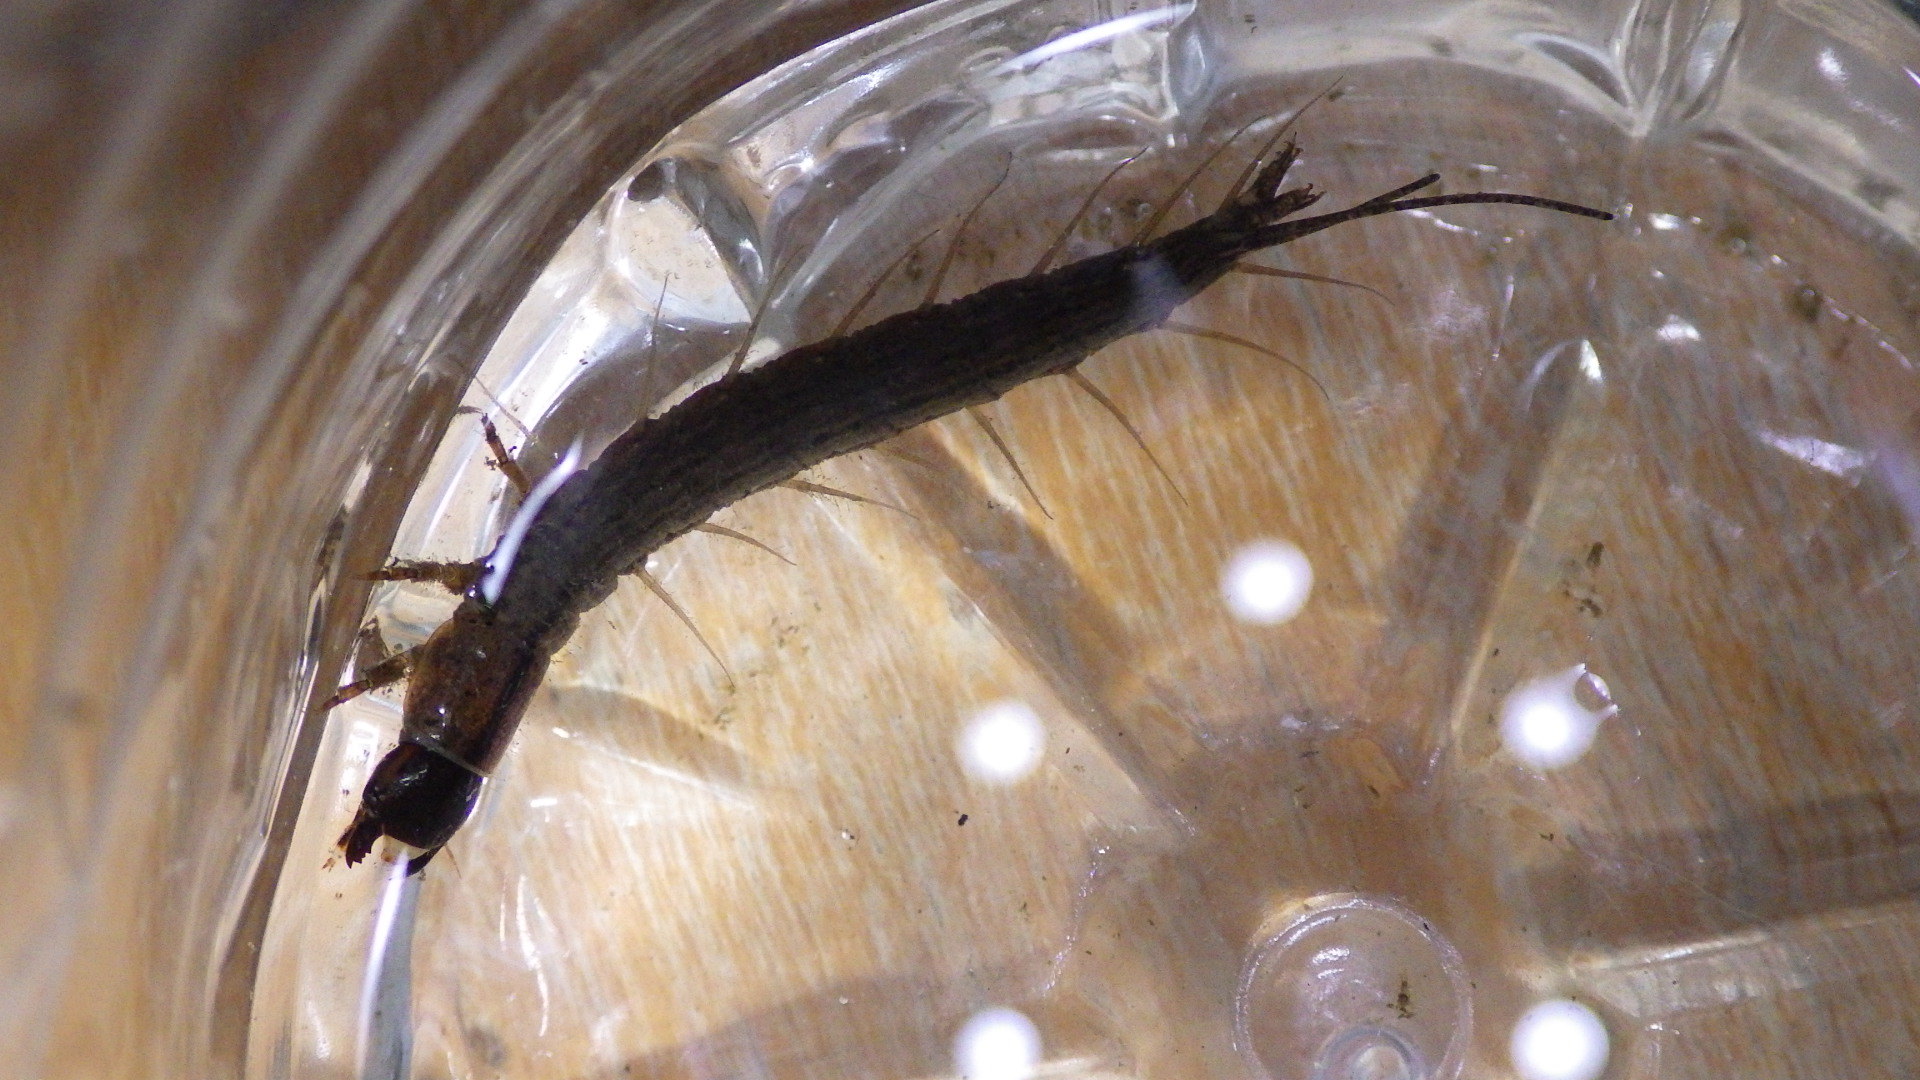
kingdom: Animalia
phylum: Arthropoda
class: Insecta
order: Megaloptera
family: Corydalidae
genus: Chauliodes
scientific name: Chauliodes rastricornis
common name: Spring fishfly
